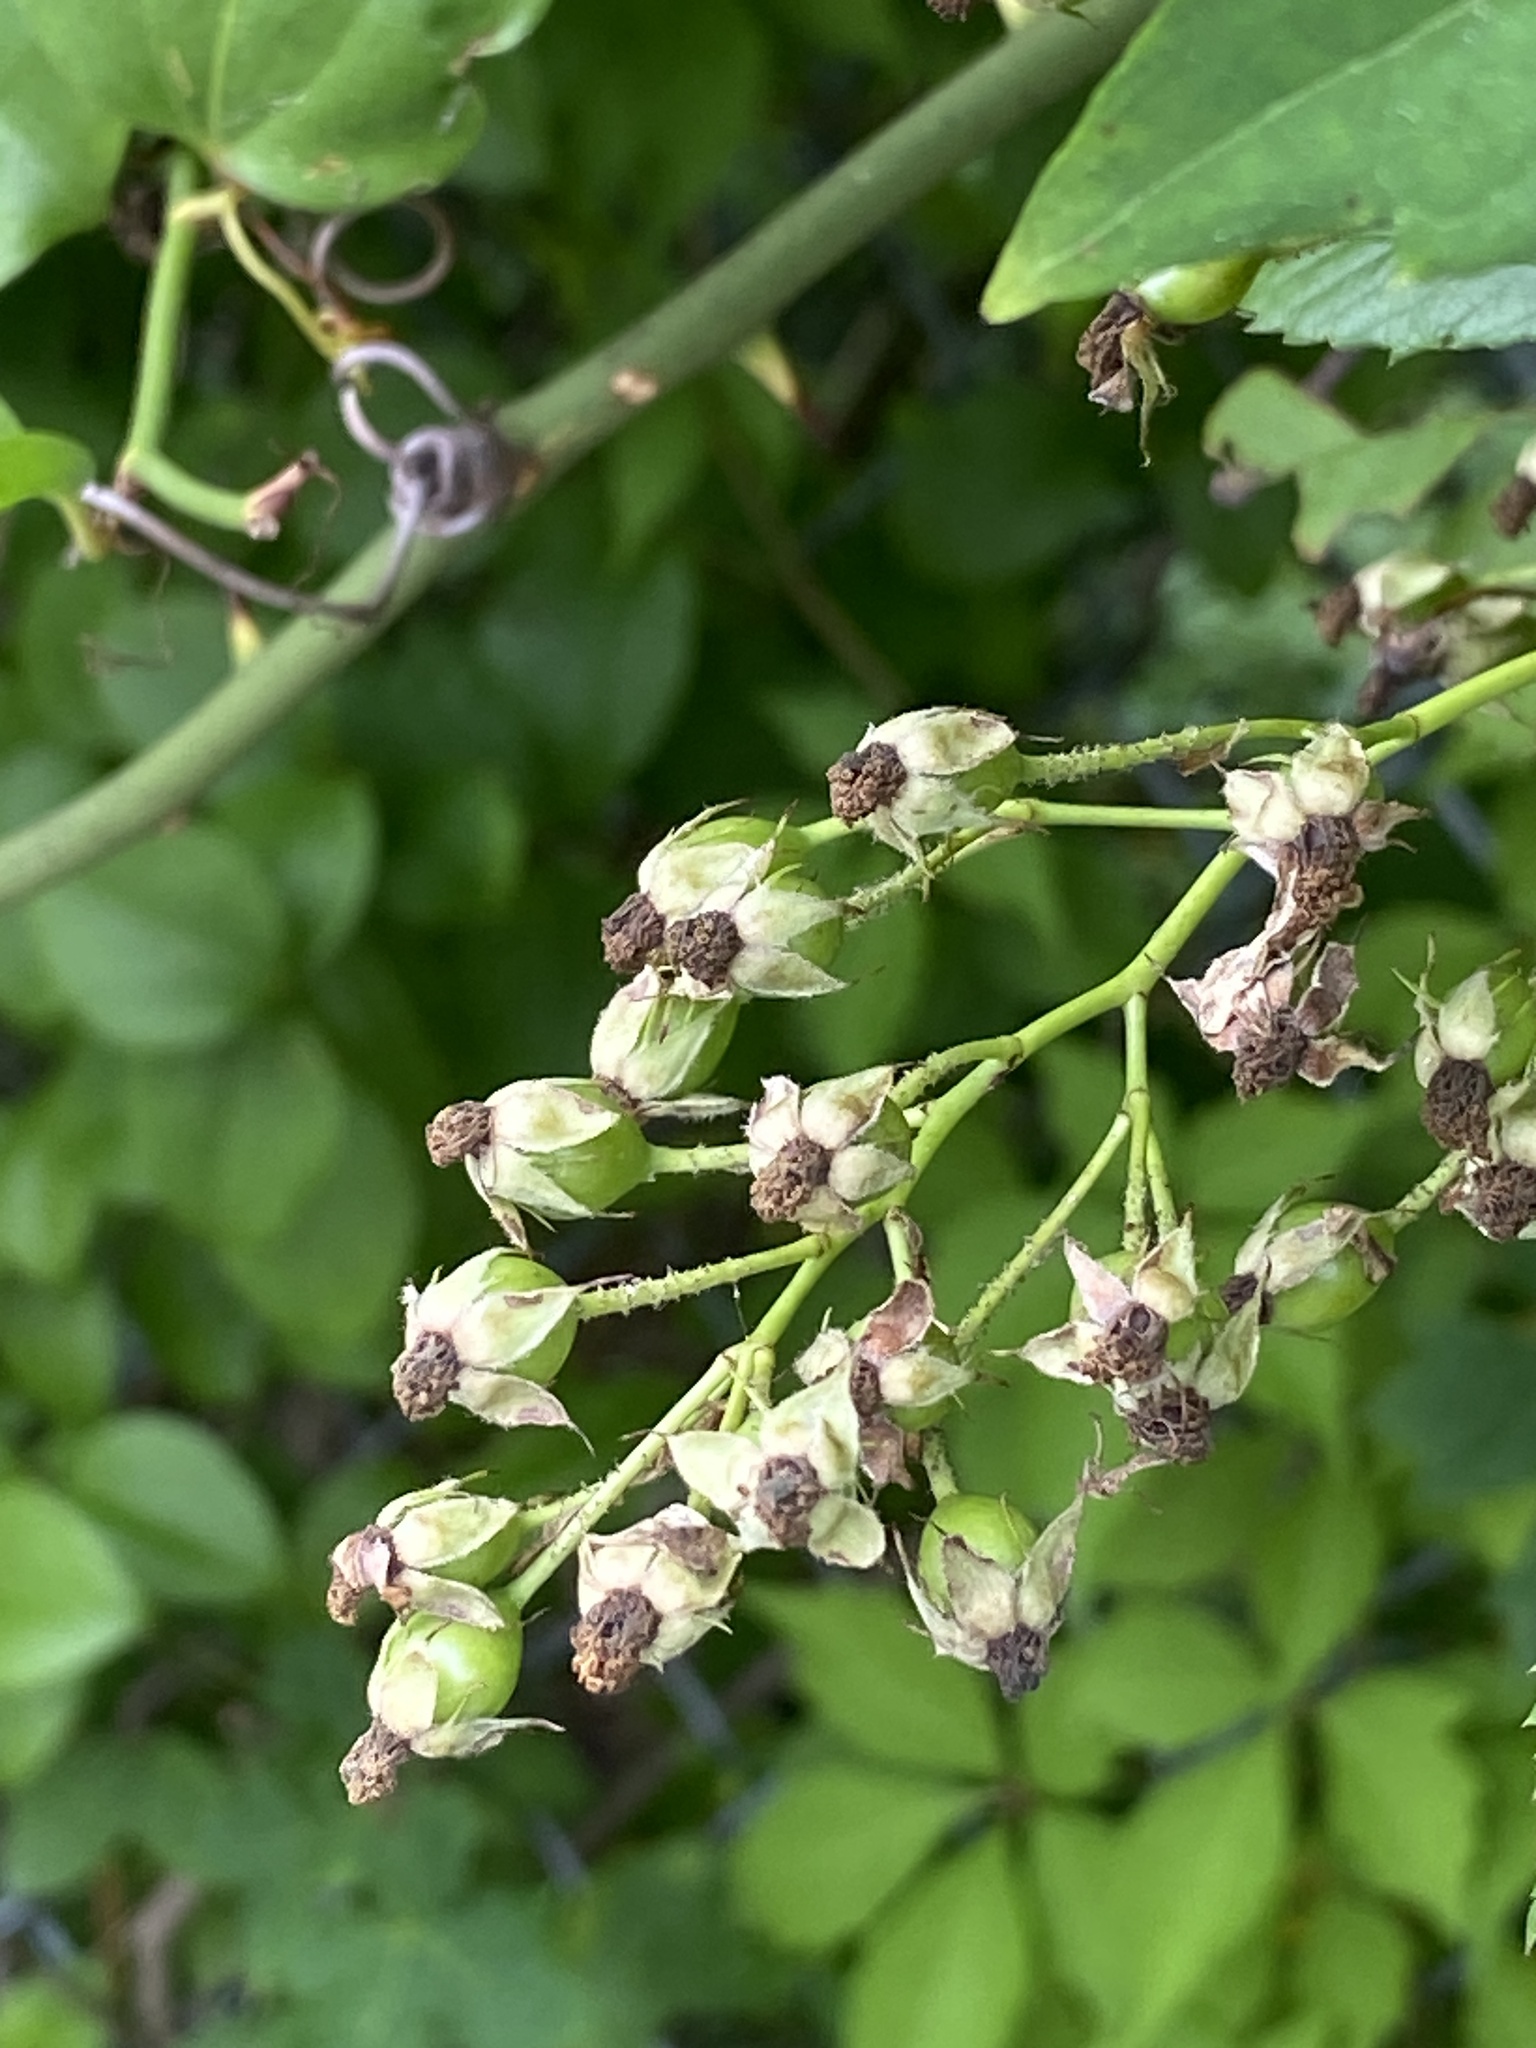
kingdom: Plantae
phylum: Tracheophyta
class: Magnoliopsida
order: Rosales
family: Rosaceae
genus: Rosa
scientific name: Rosa multiflora
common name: Multiflora rose
